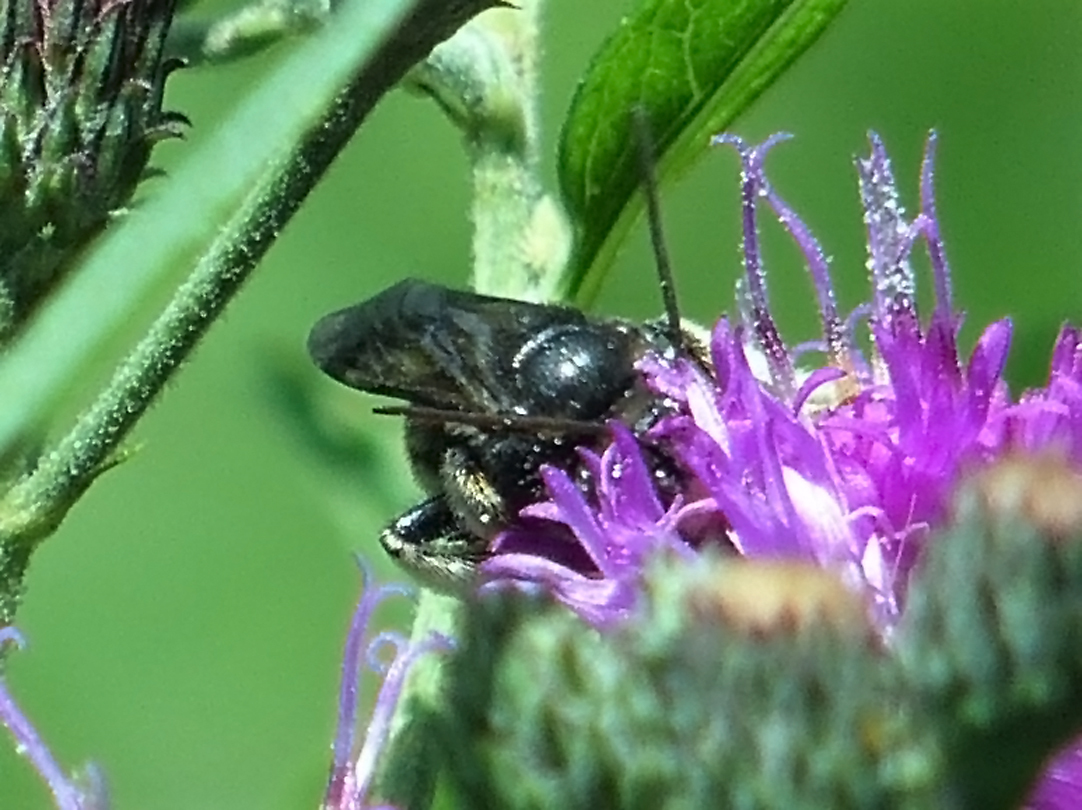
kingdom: Animalia
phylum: Arthropoda
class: Insecta
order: Hymenoptera
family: Apidae
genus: Melissodes
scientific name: Melissodes bimaculatus
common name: Two-spotted long-horned bee
